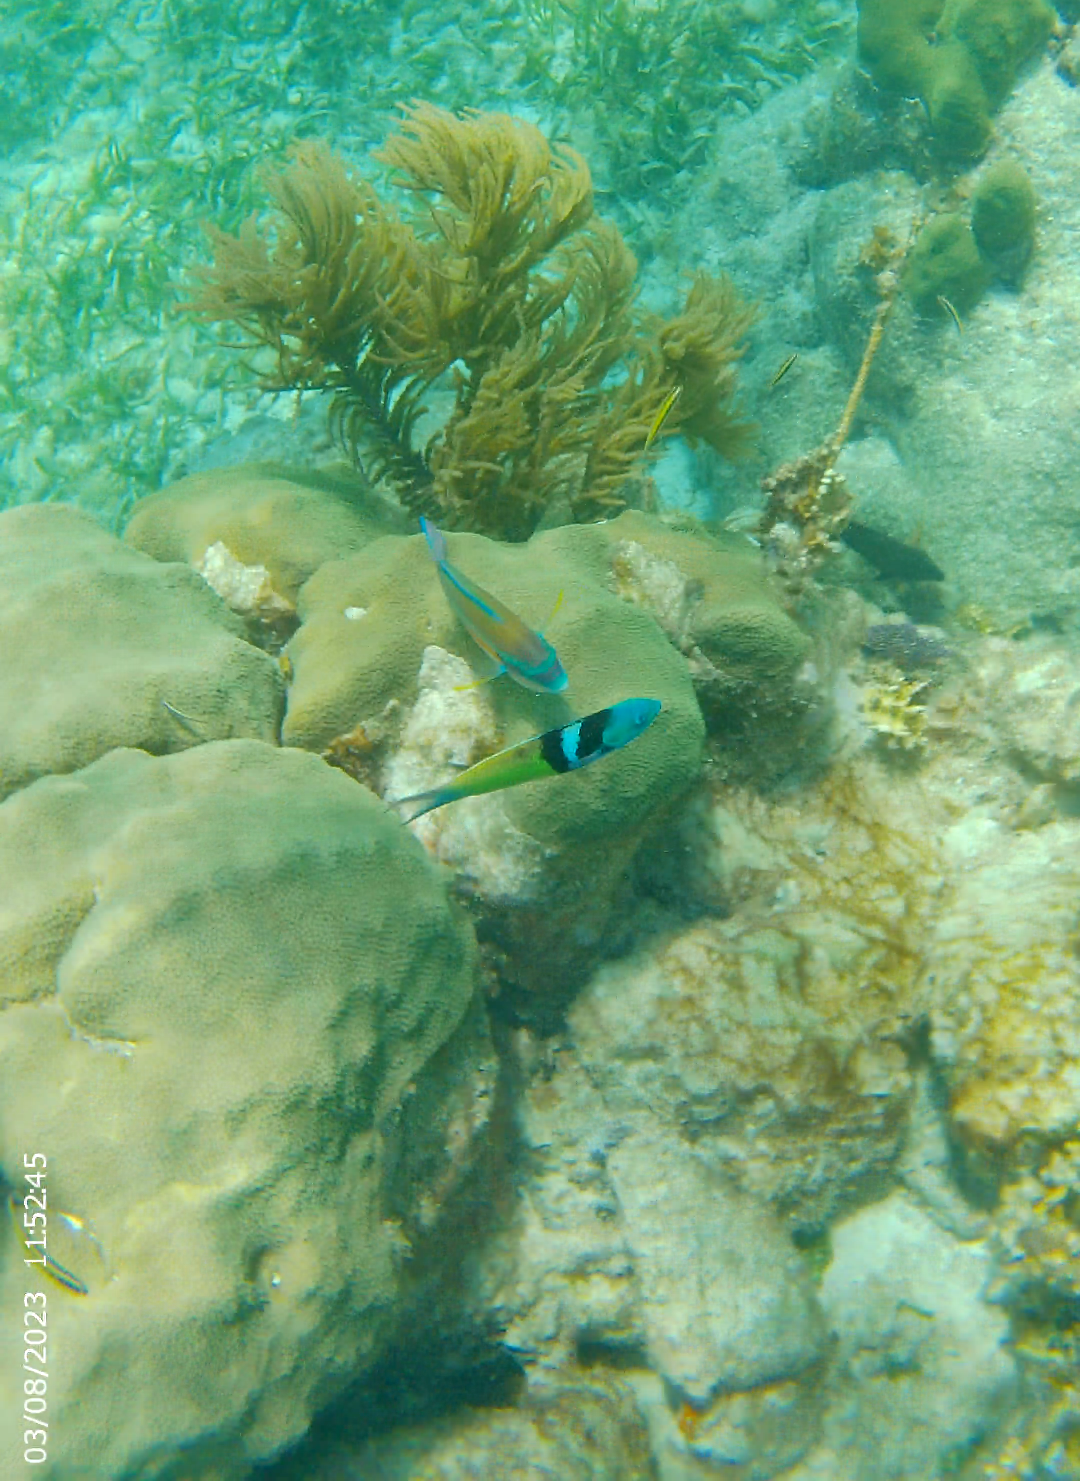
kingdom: Animalia
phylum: Chordata
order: Perciformes
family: Scaridae
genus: Scarus
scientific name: Scarus iseri
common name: Striped parrotfish
